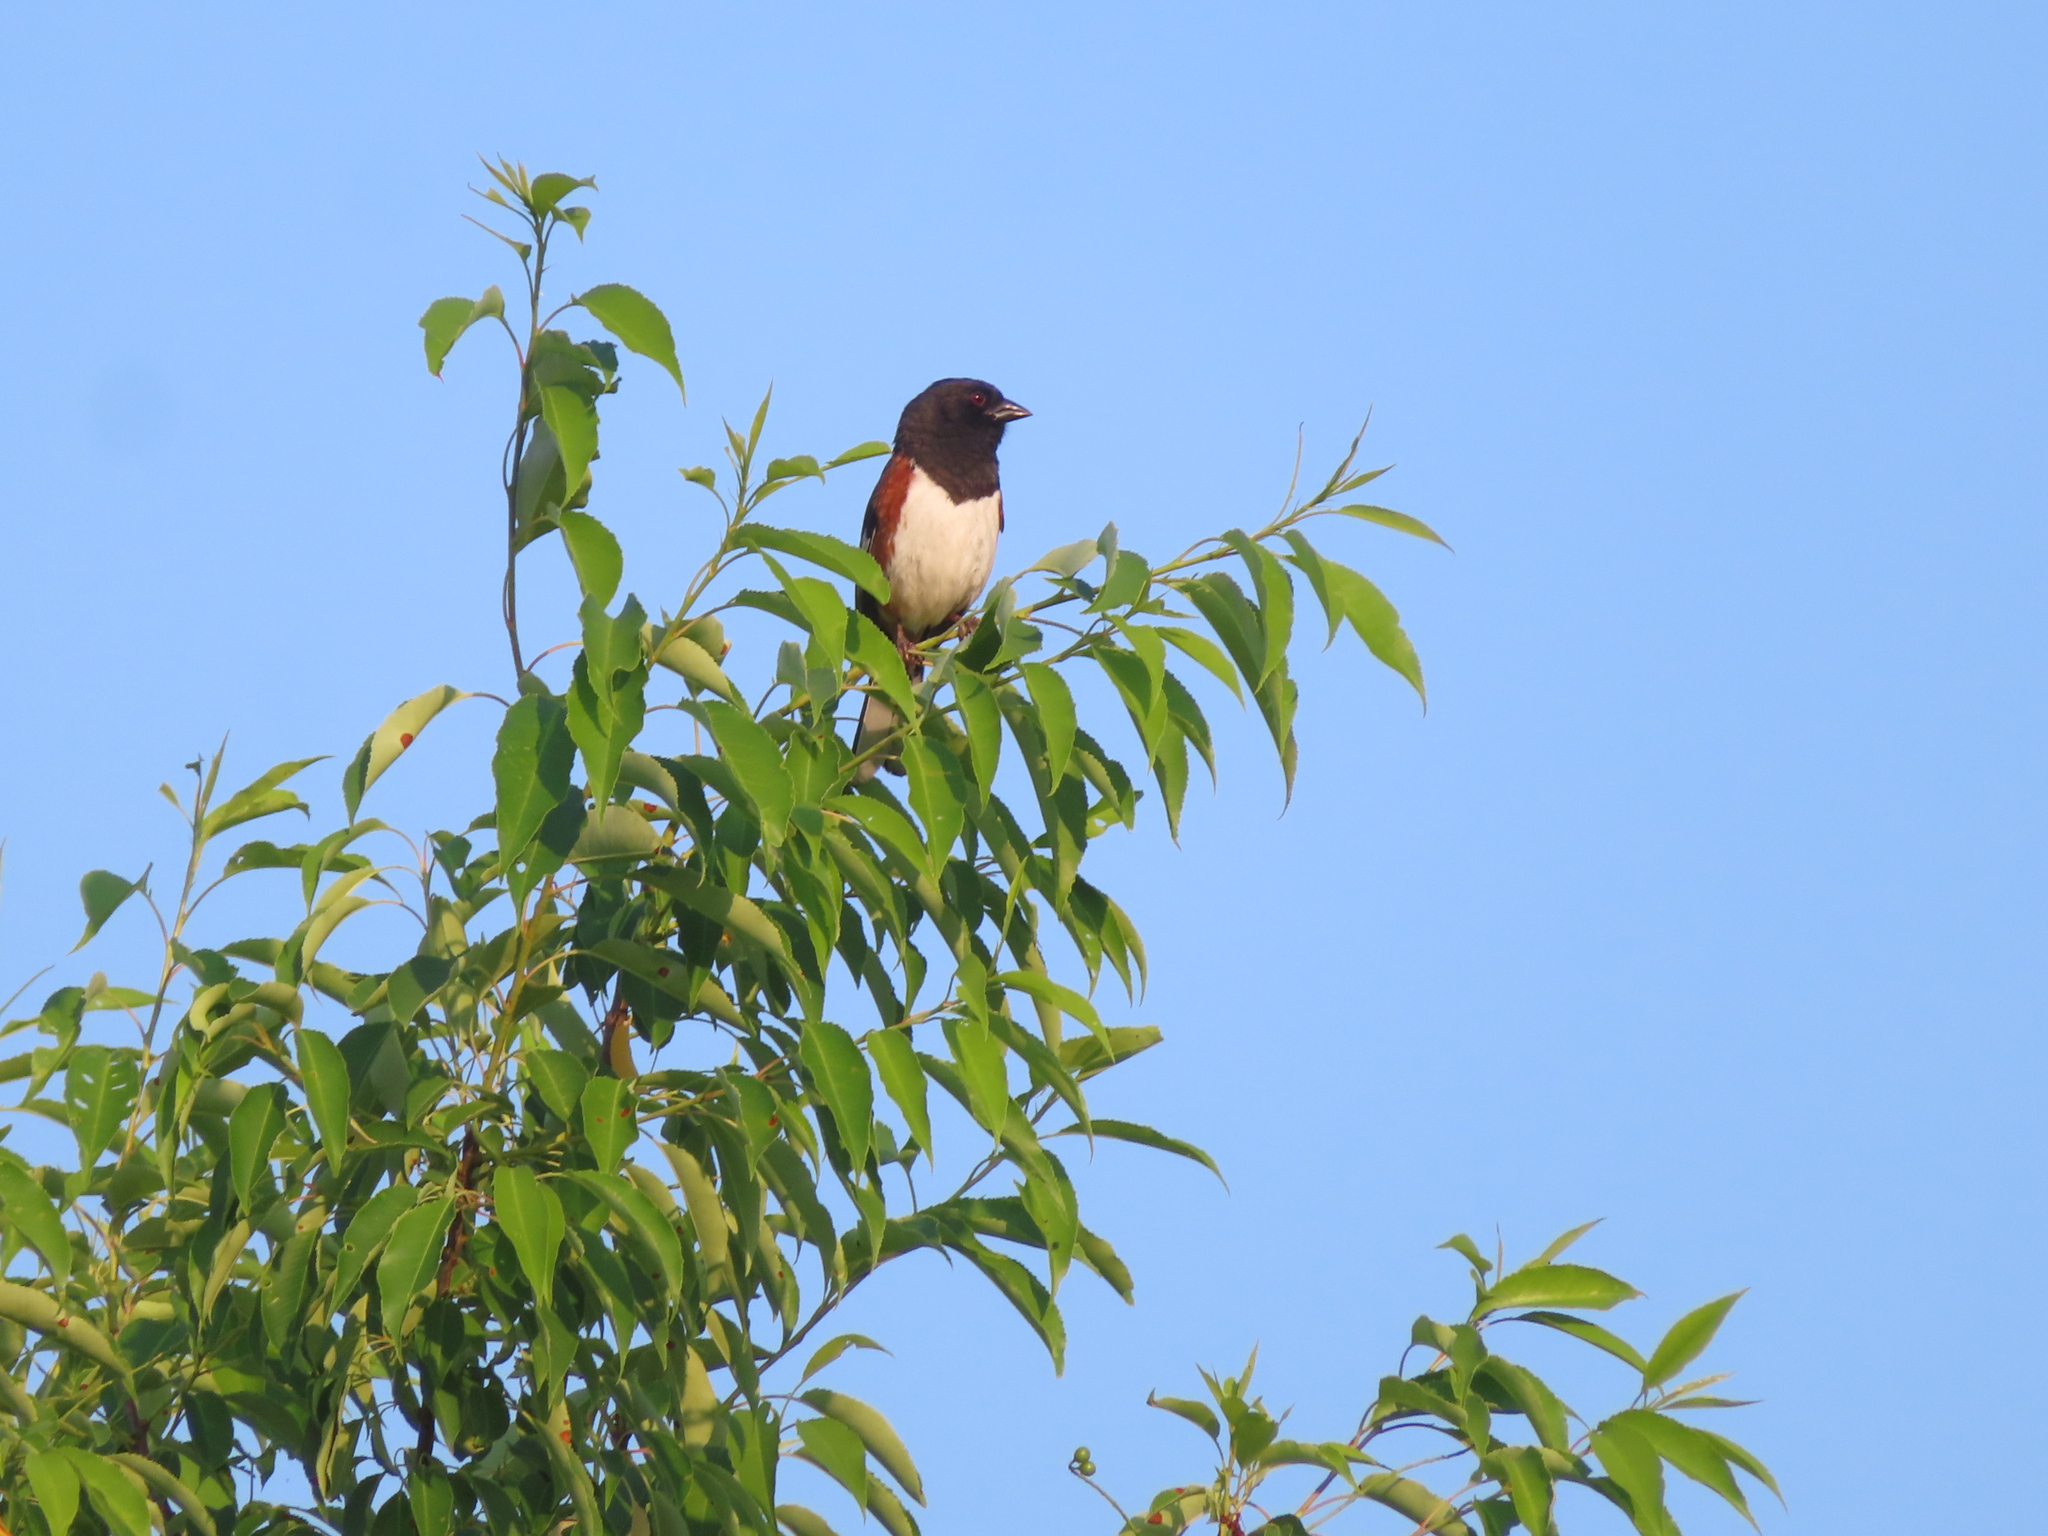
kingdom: Animalia
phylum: Chordata
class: Aves
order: Passeriformes
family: Passerellidae
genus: Pipilo
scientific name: Pipilo erythrophthalmus
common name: Eastern towhee
